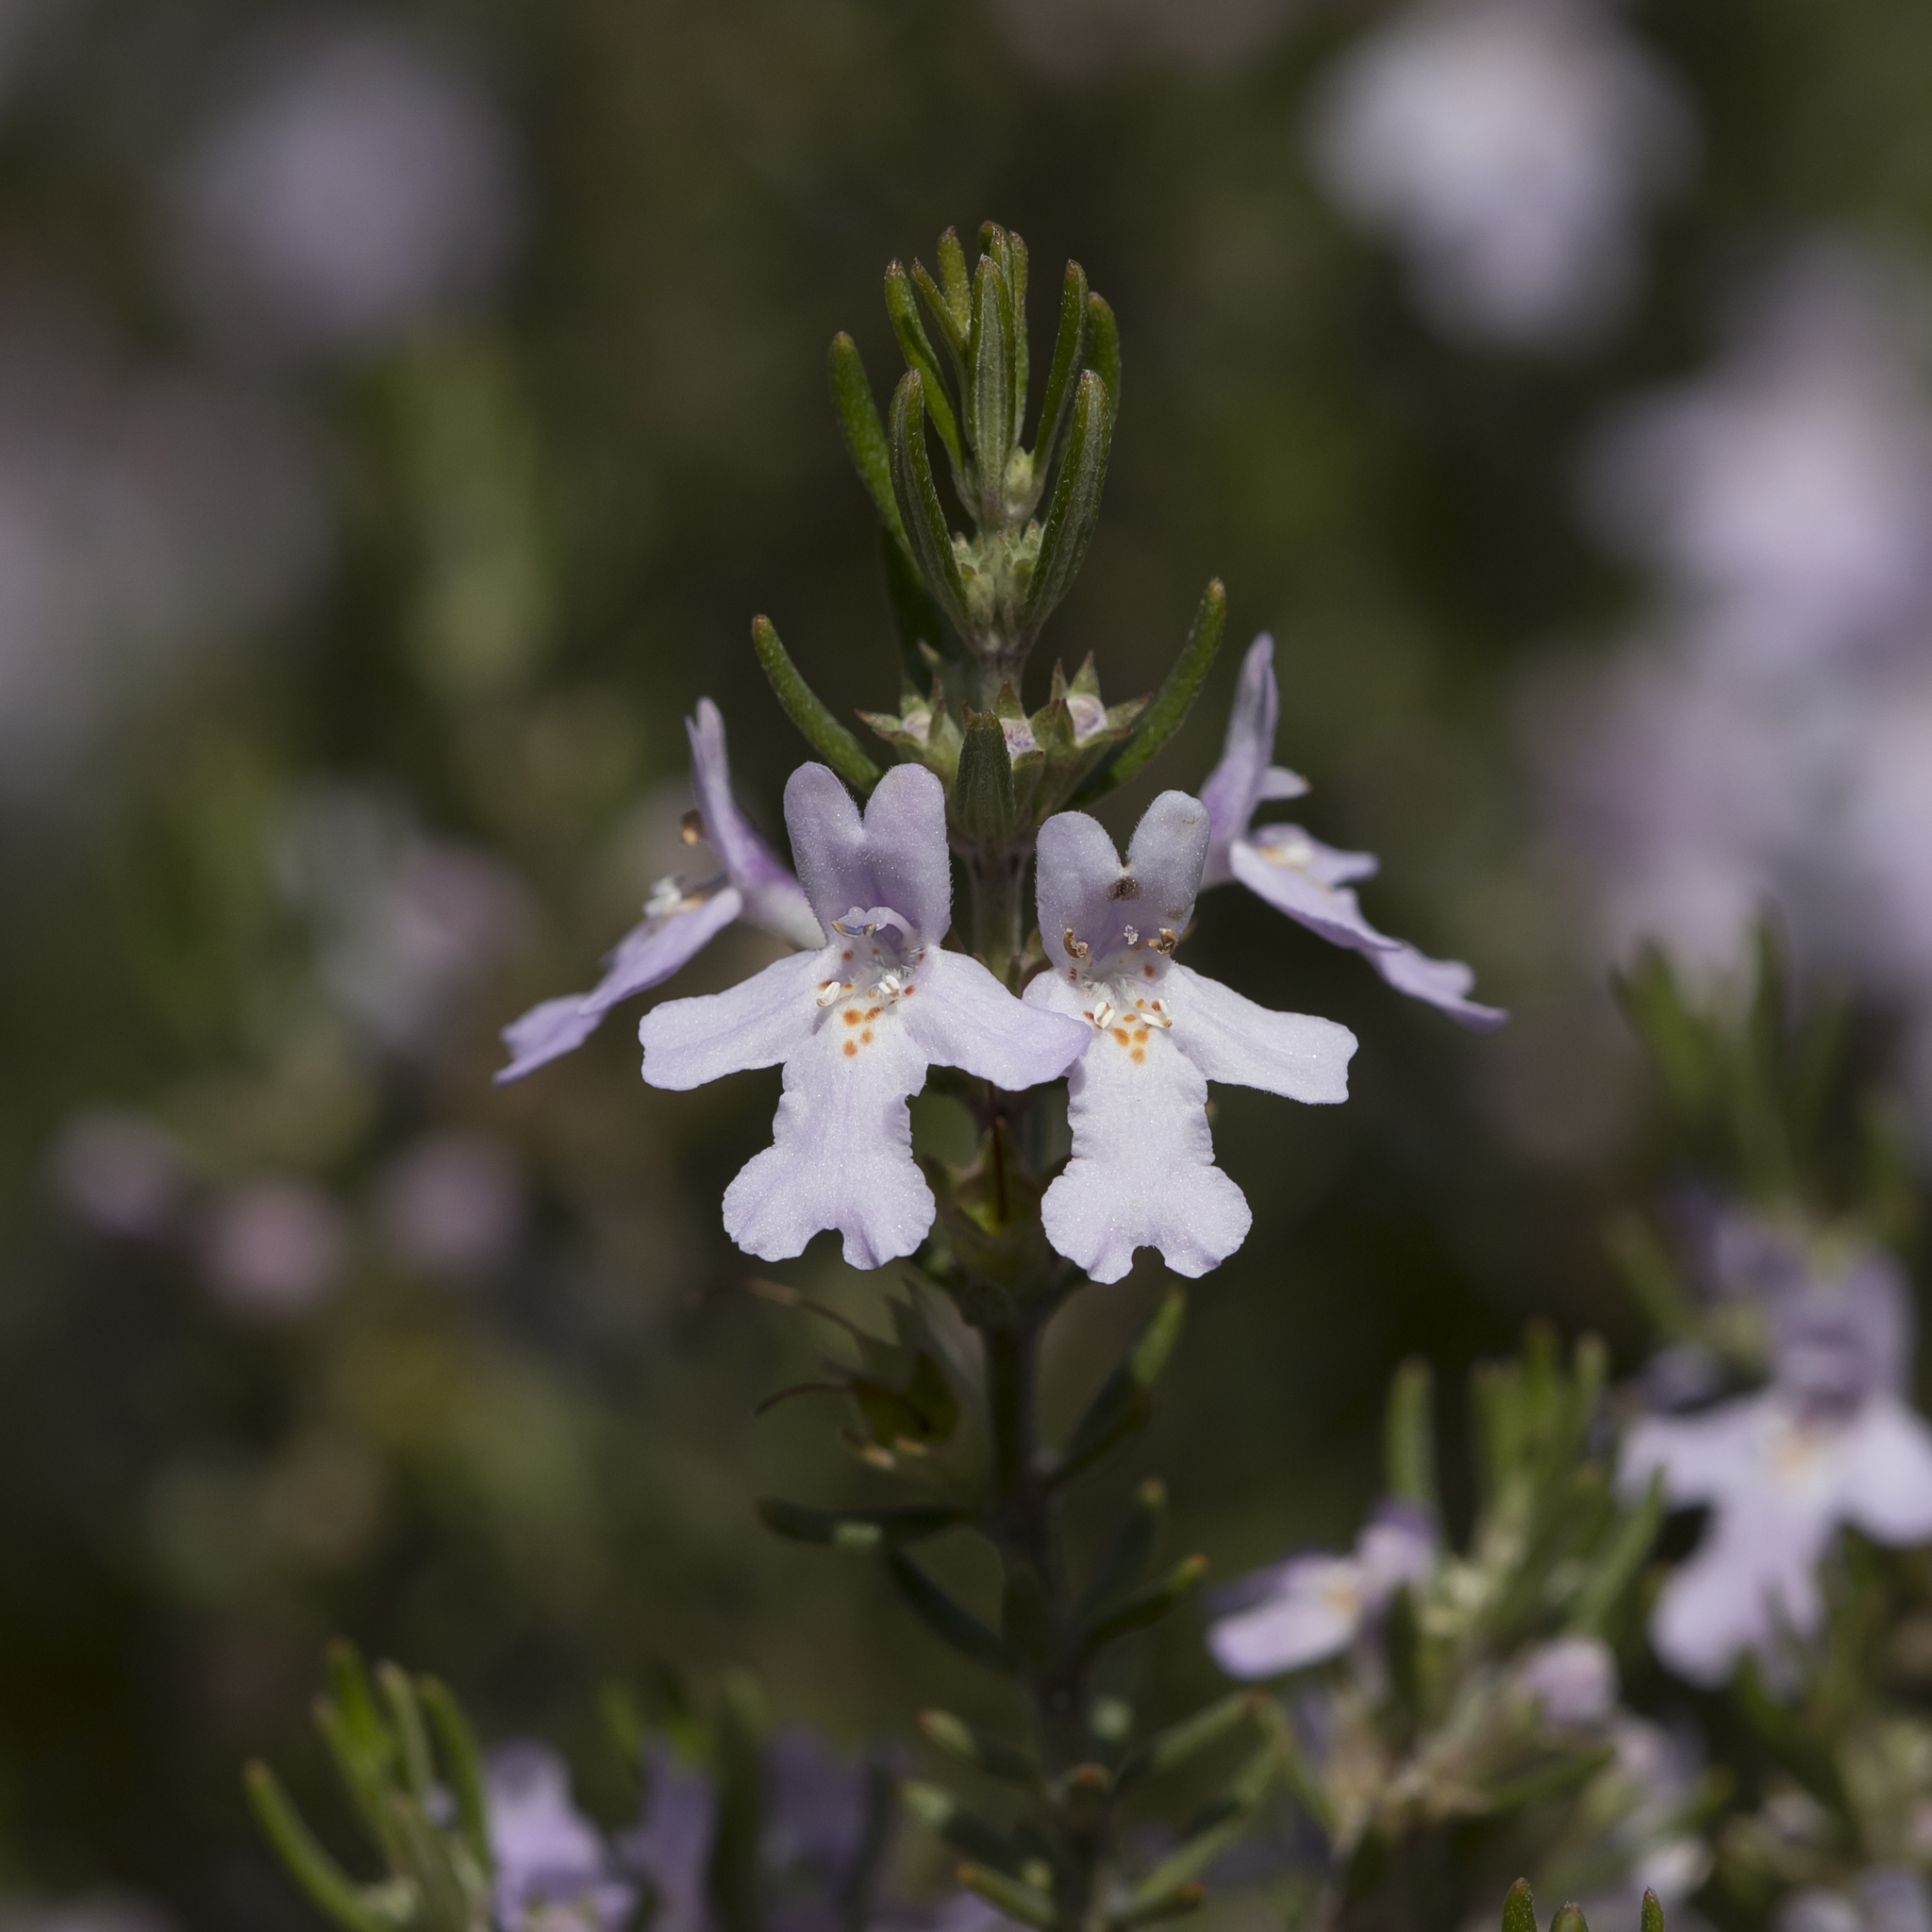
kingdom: Plantae
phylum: Tracheophyta
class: Magnoliopsida
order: Lamiales
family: Lamiaceae
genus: Westringia
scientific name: Westringia eremicola
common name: Slender western-rosemary
